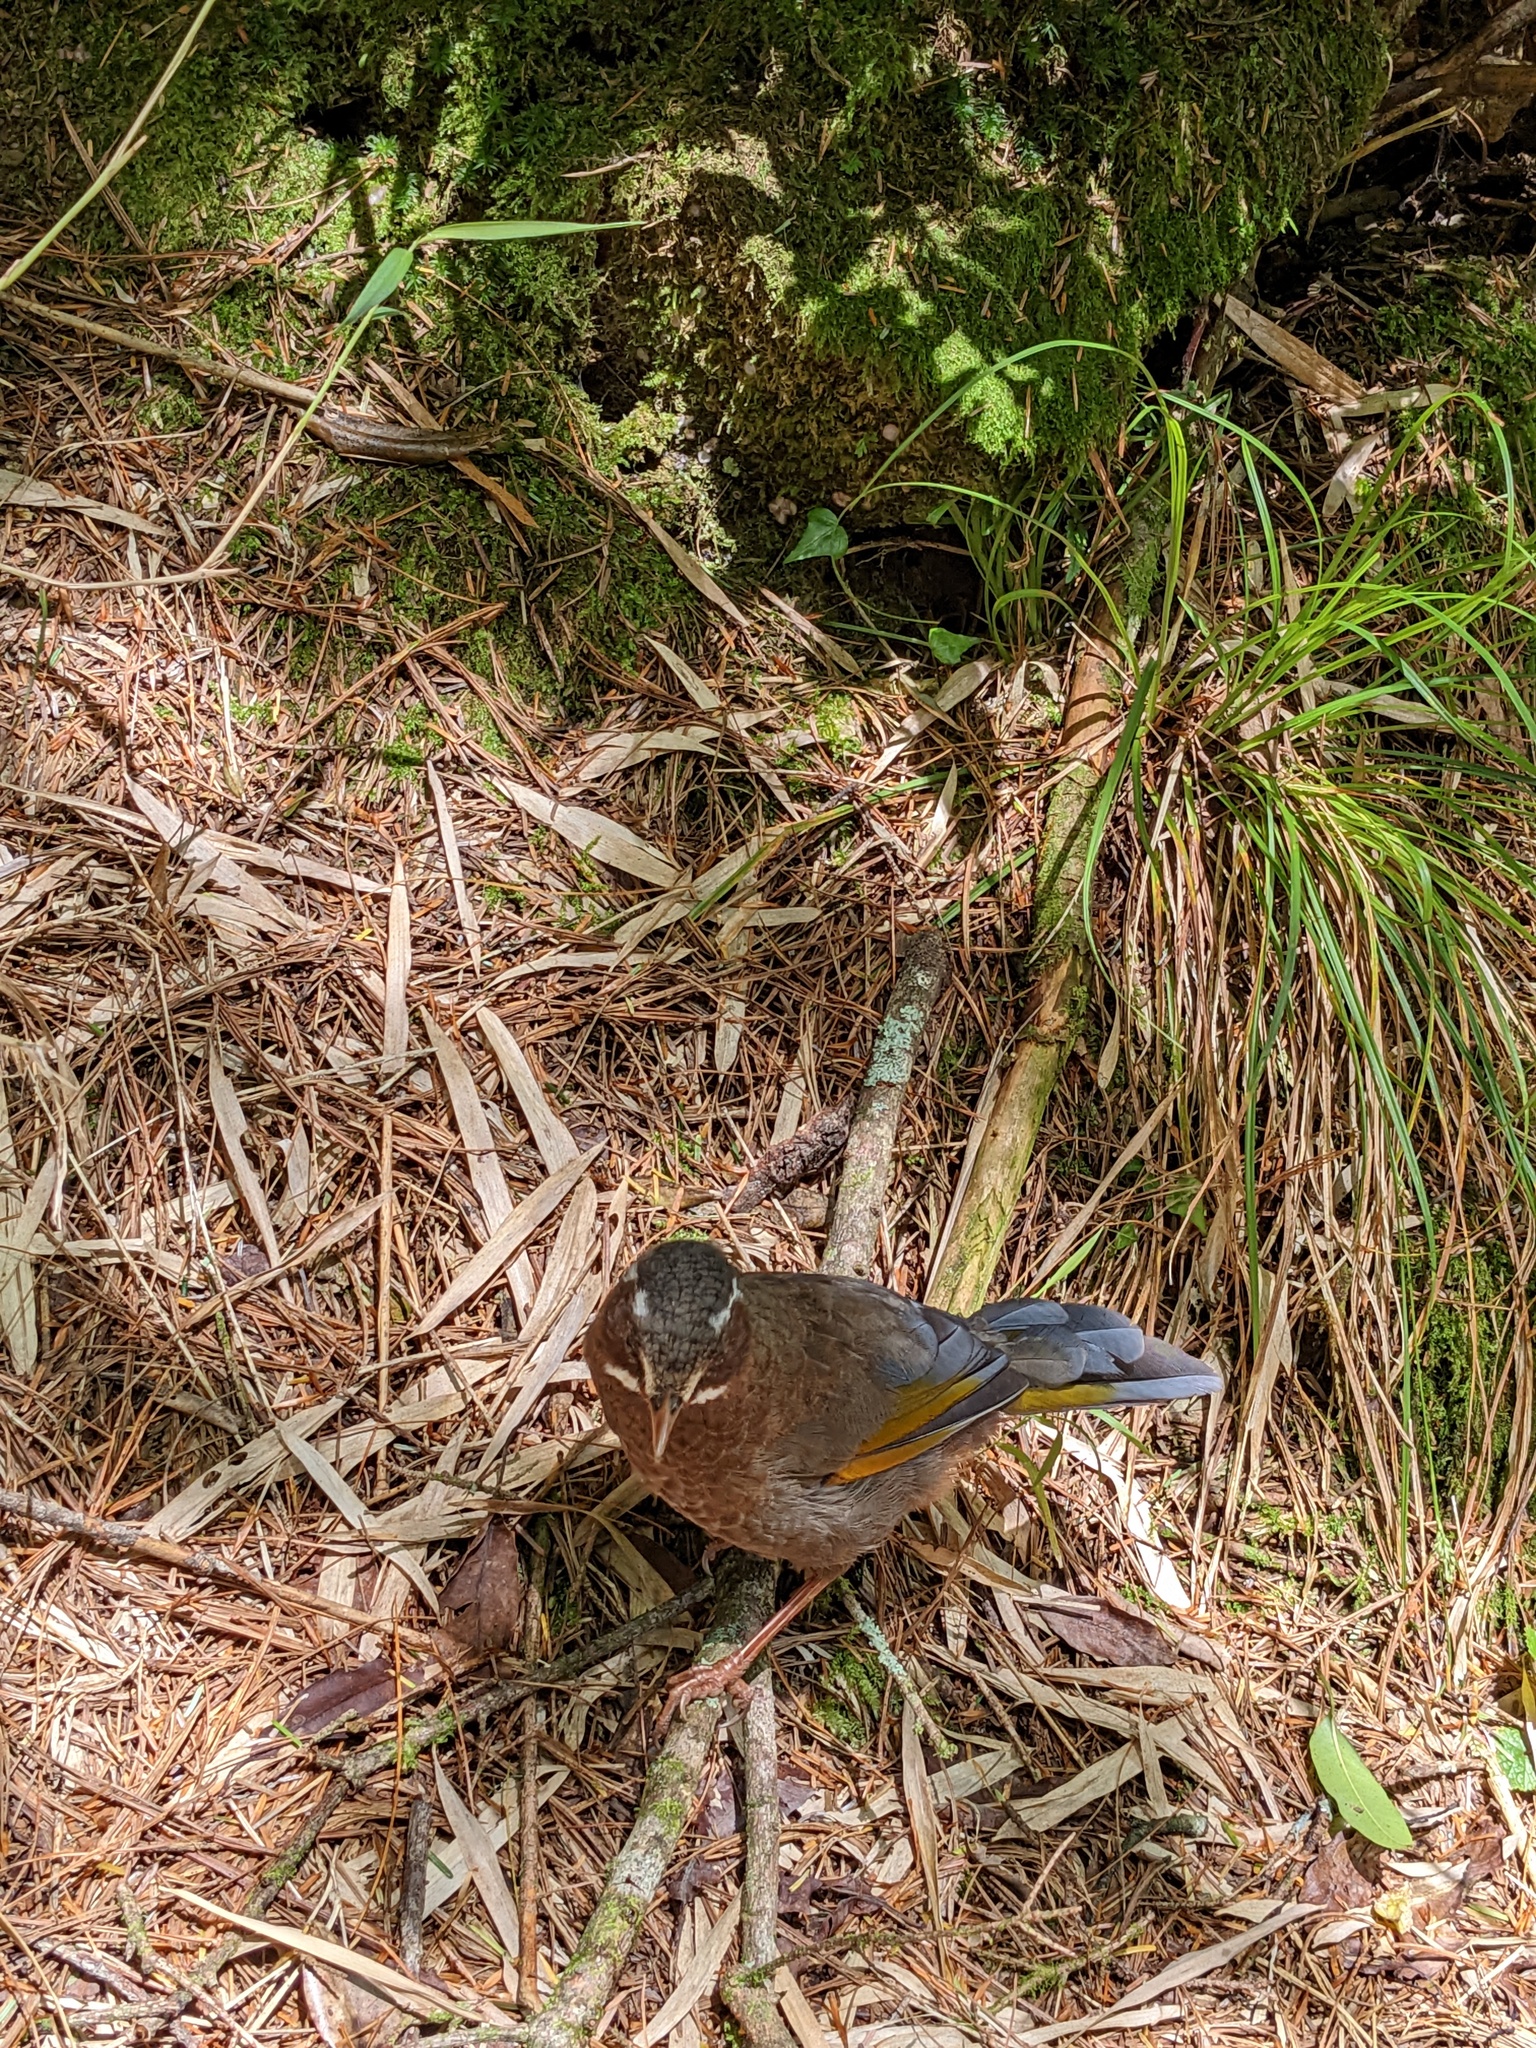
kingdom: Animalia
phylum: Chordata
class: Aves
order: Passeriformes
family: Leiothrichidae
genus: Trochalopteron
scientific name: Trochalopteron morrisonianum
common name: White-whiskered laughingthrush
